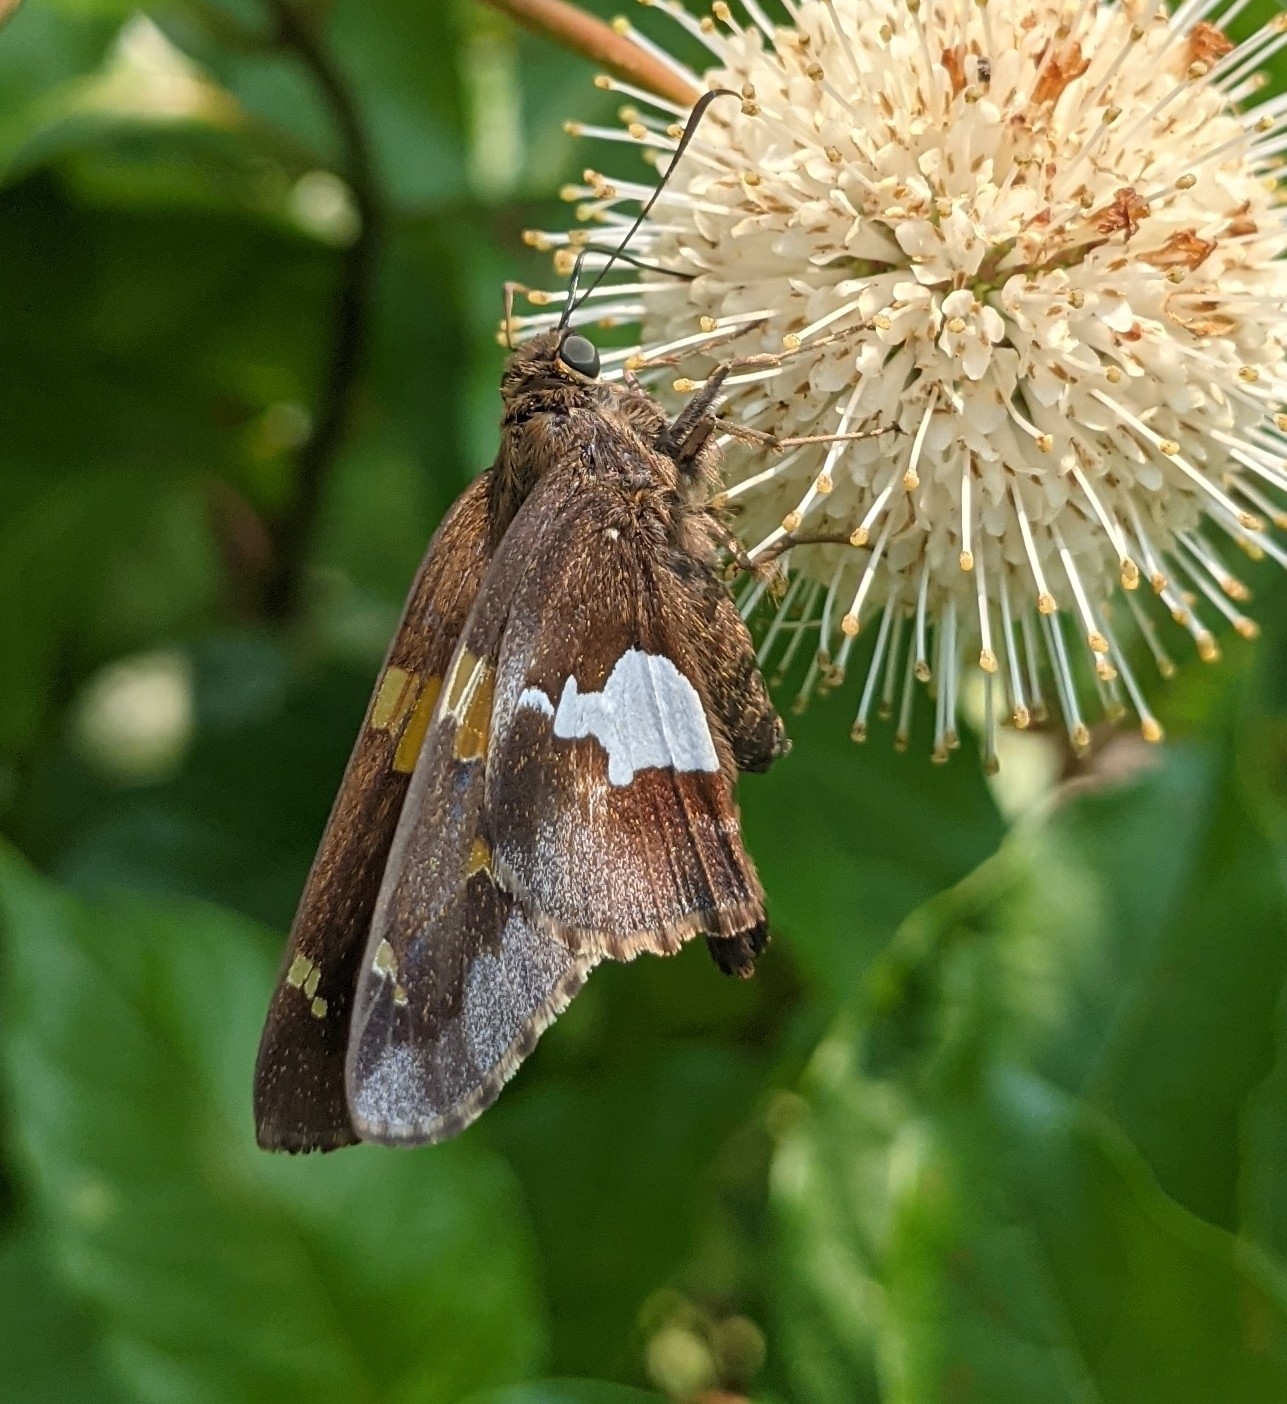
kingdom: Animalia
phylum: Arthropoda
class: Insecta
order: Lepidoptera
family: Hesperiidae
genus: Epargyreus
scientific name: Epargyreus clarus
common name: Silver-spotted skipper
